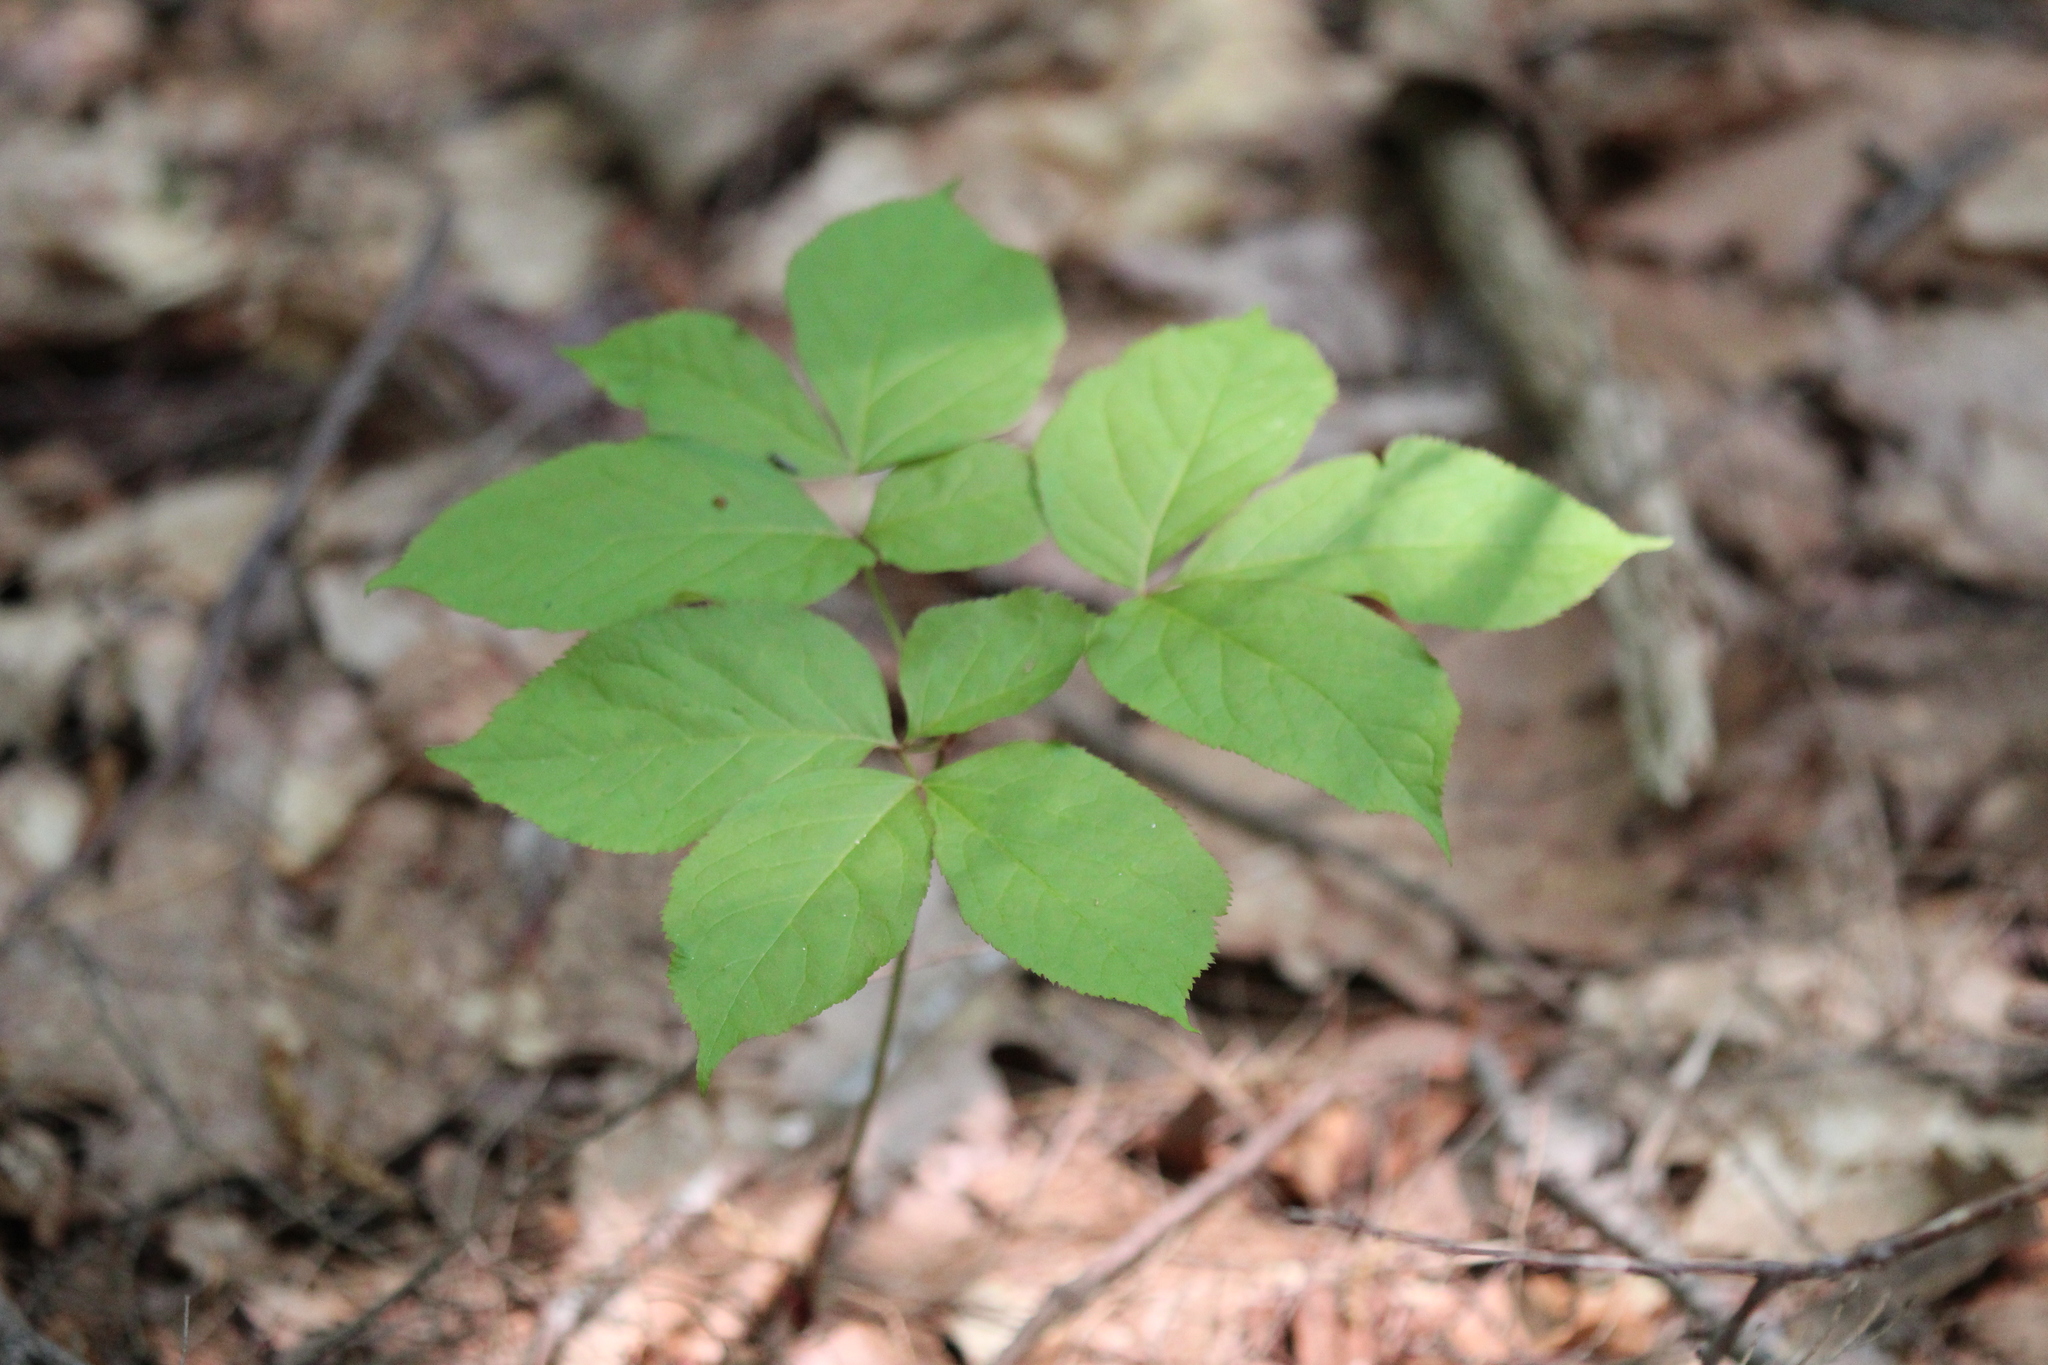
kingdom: Plantae
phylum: Tracheophyta
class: Magnoliopsida
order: Apiales
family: Araliaceae
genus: Aralia
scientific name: Aralia nudicaulis
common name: Wild sarsaparilla
